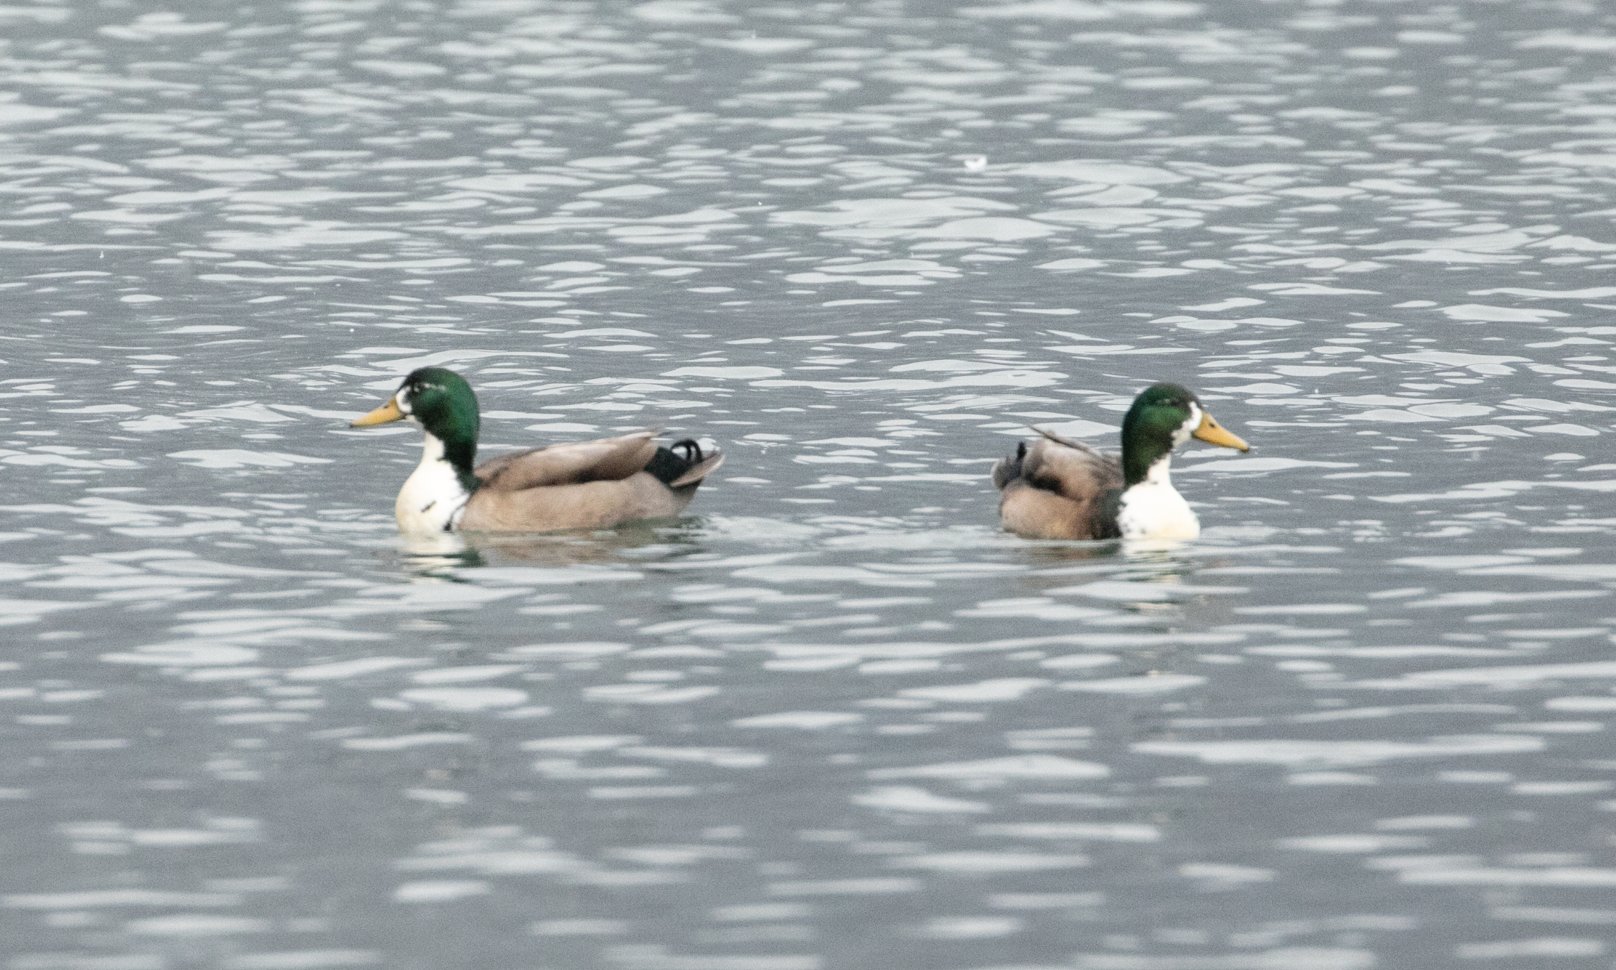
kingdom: Animalia
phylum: Chordata
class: Aves
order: Anseriformes
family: Anatidae
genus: Anas
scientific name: Anas platyrhynchos
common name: Mallard
